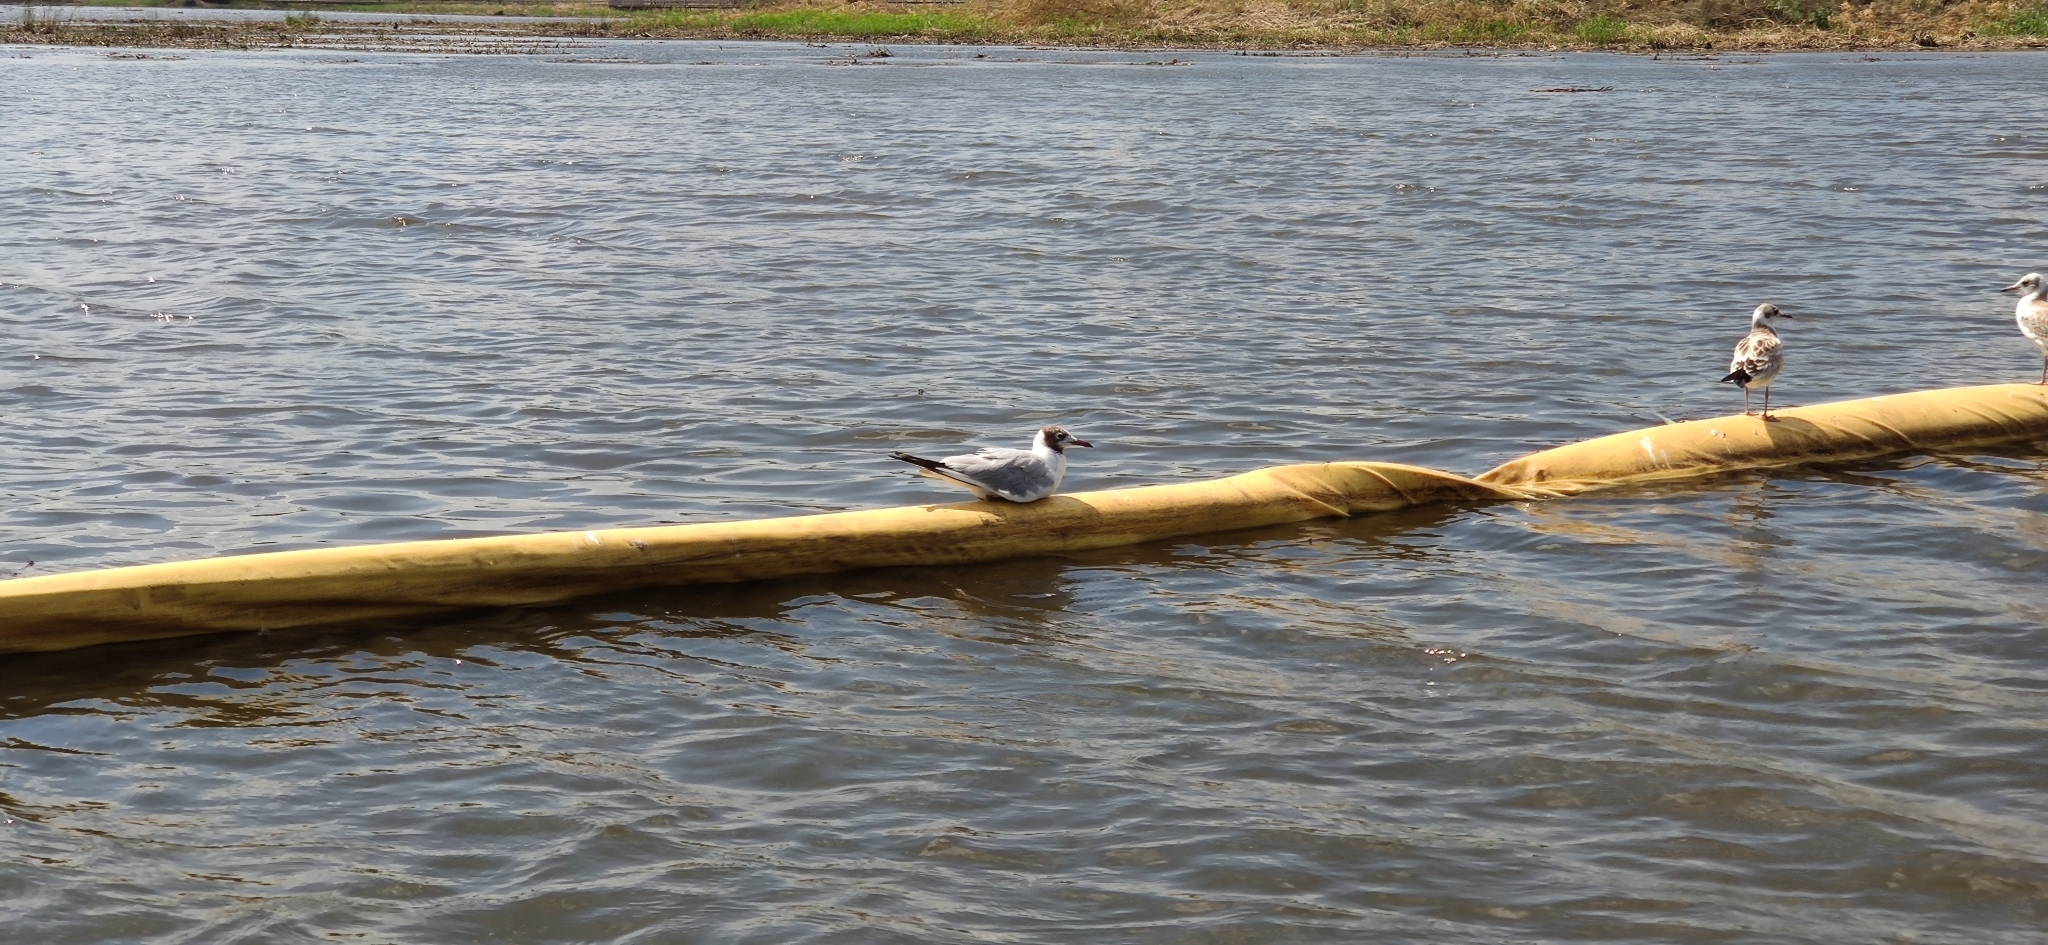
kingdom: Animalia
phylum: Chordata
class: Aves
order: Charadriiformes
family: Laridae
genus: Chroicocephalus
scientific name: Chroicocephalus ridibundus
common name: Black-headed gull
